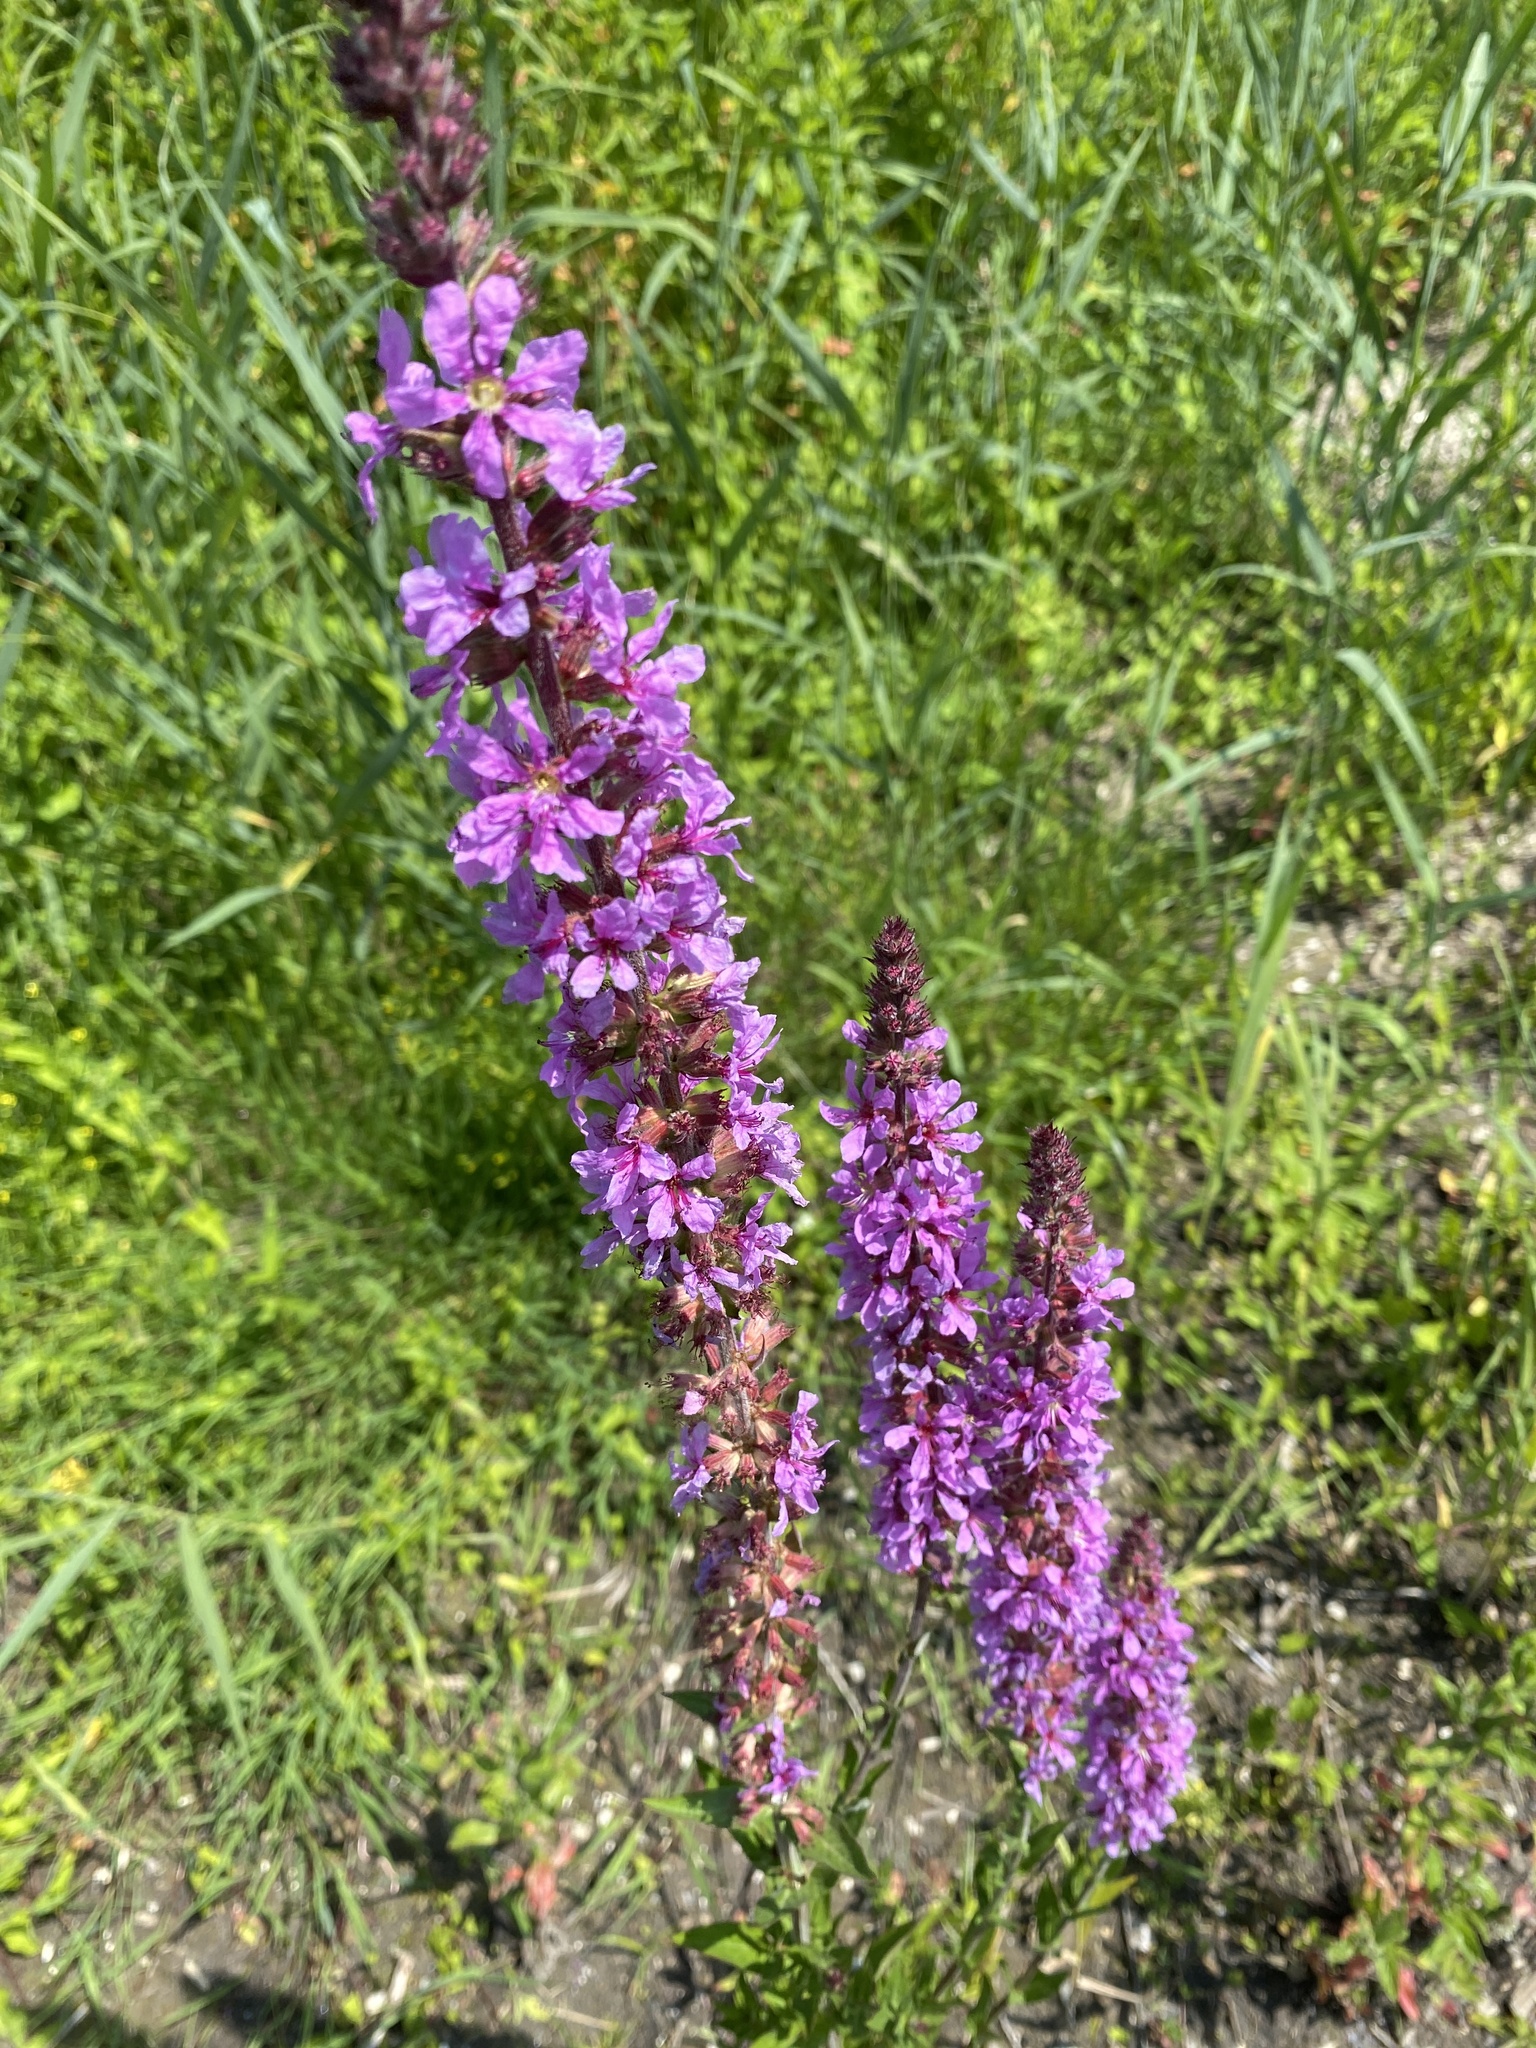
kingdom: Plantae
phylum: Tracheophyta
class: Magnoliopsida
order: Myrtales
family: Lythraceae
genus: Lythrum
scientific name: Lythrum salicaria
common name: Purple loosestrife
